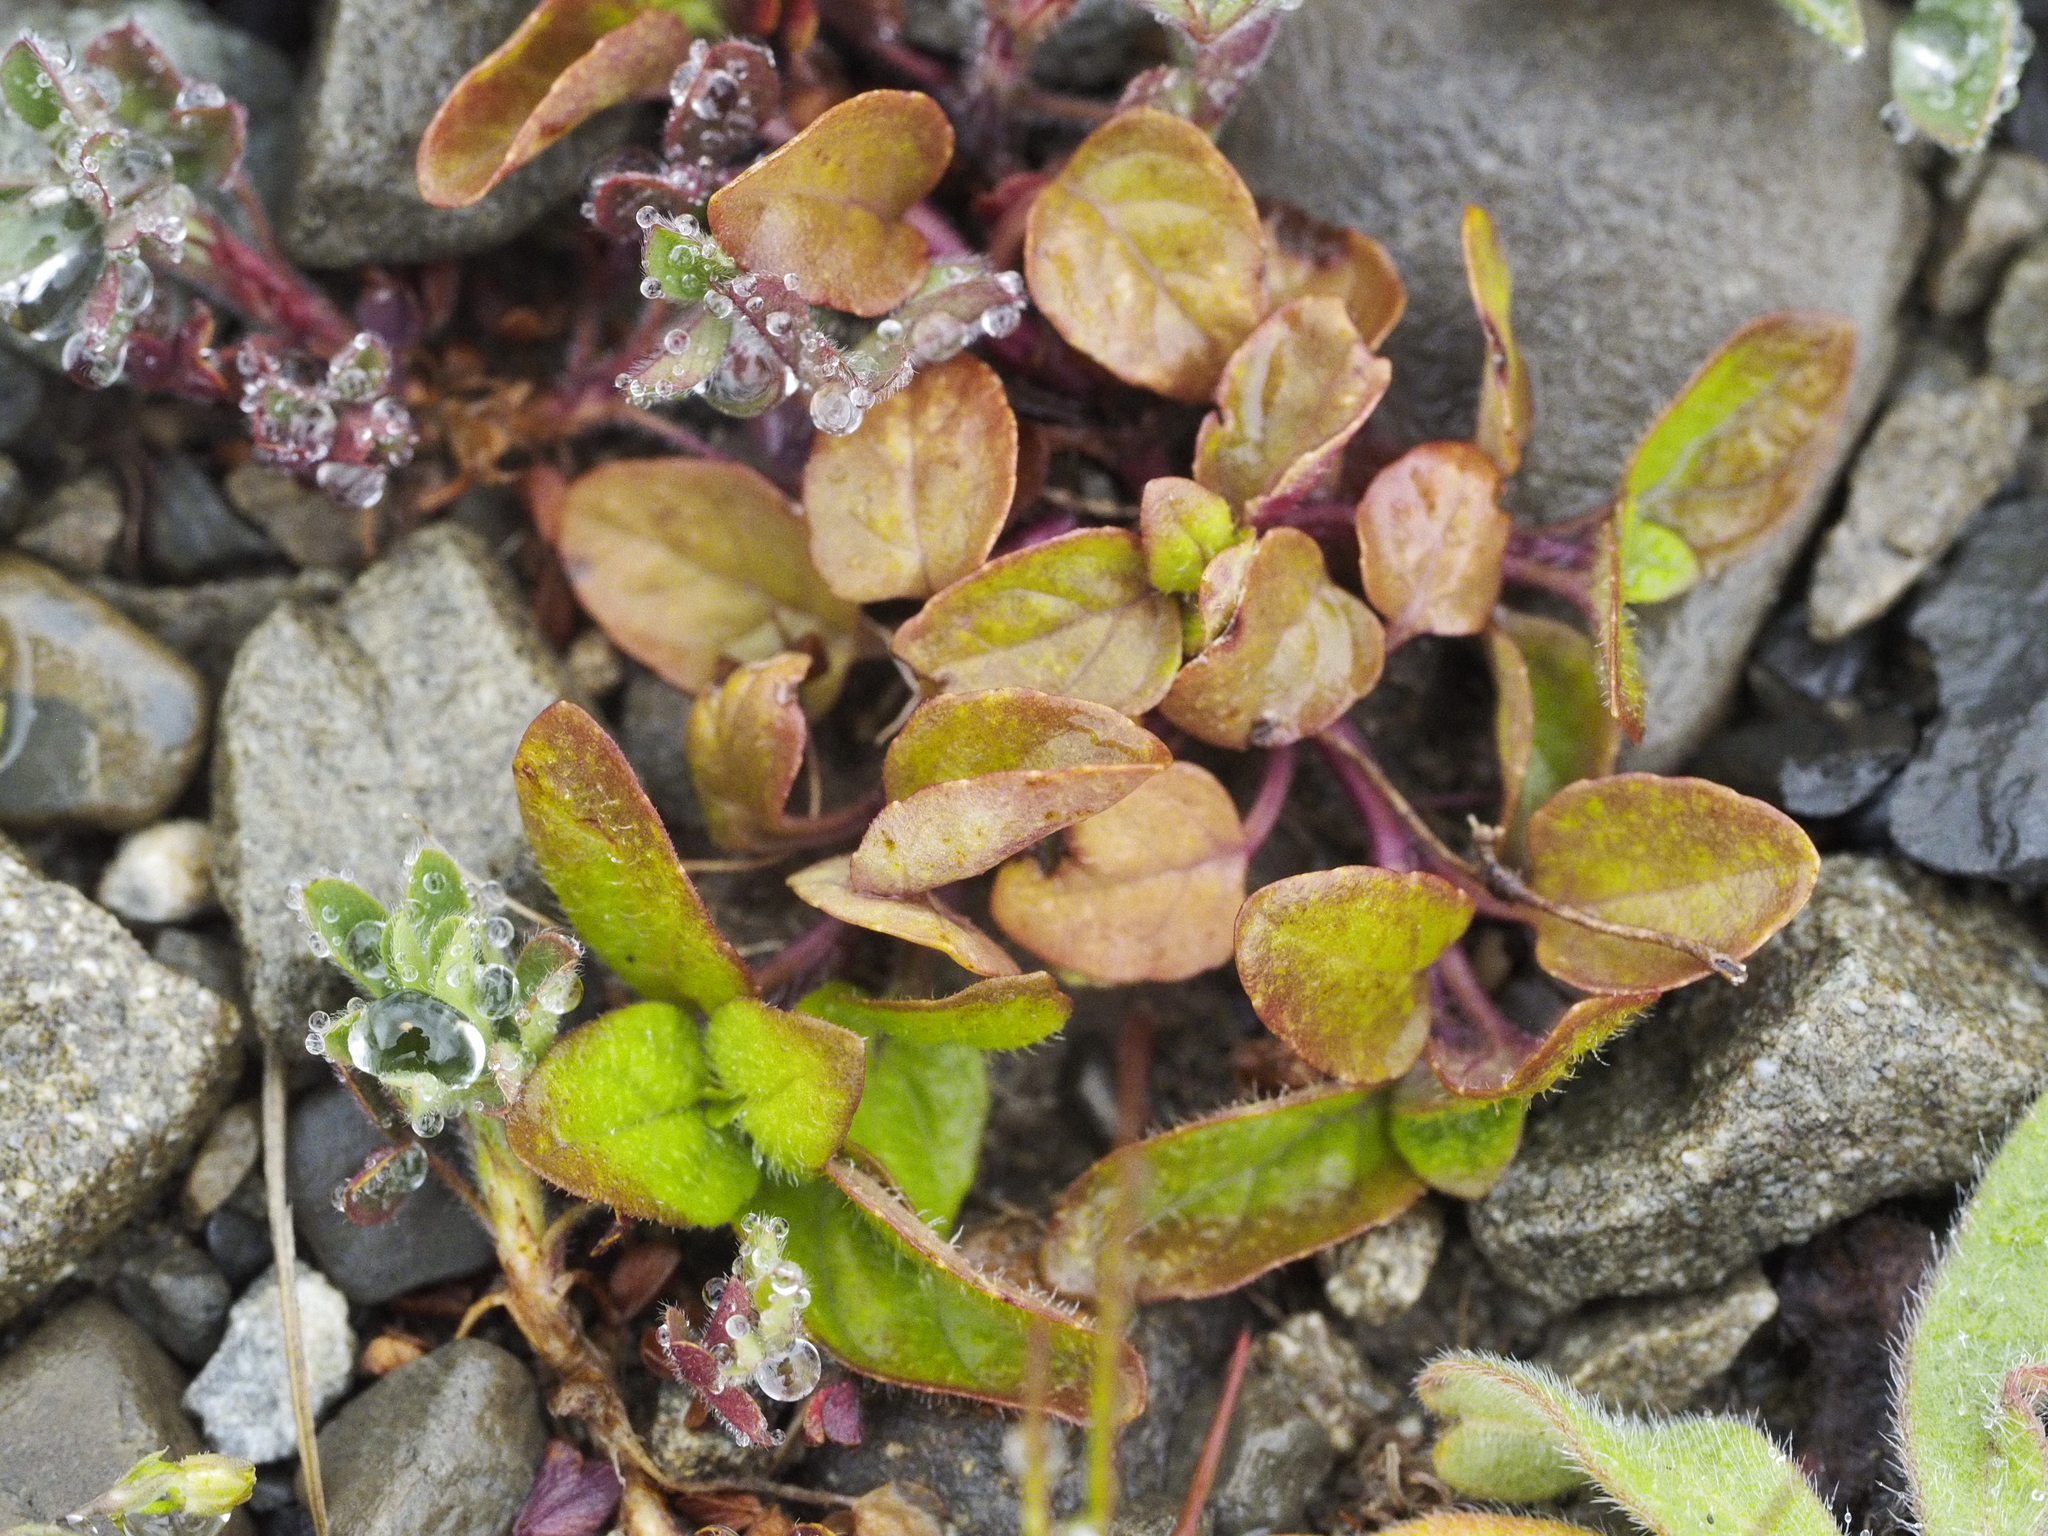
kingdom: Plantae
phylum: Tracheophyta
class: Magnoliopsida
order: Lamiales
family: Lamiaceae
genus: Prunella
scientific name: Prunella vulgaris
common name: Heal-all
